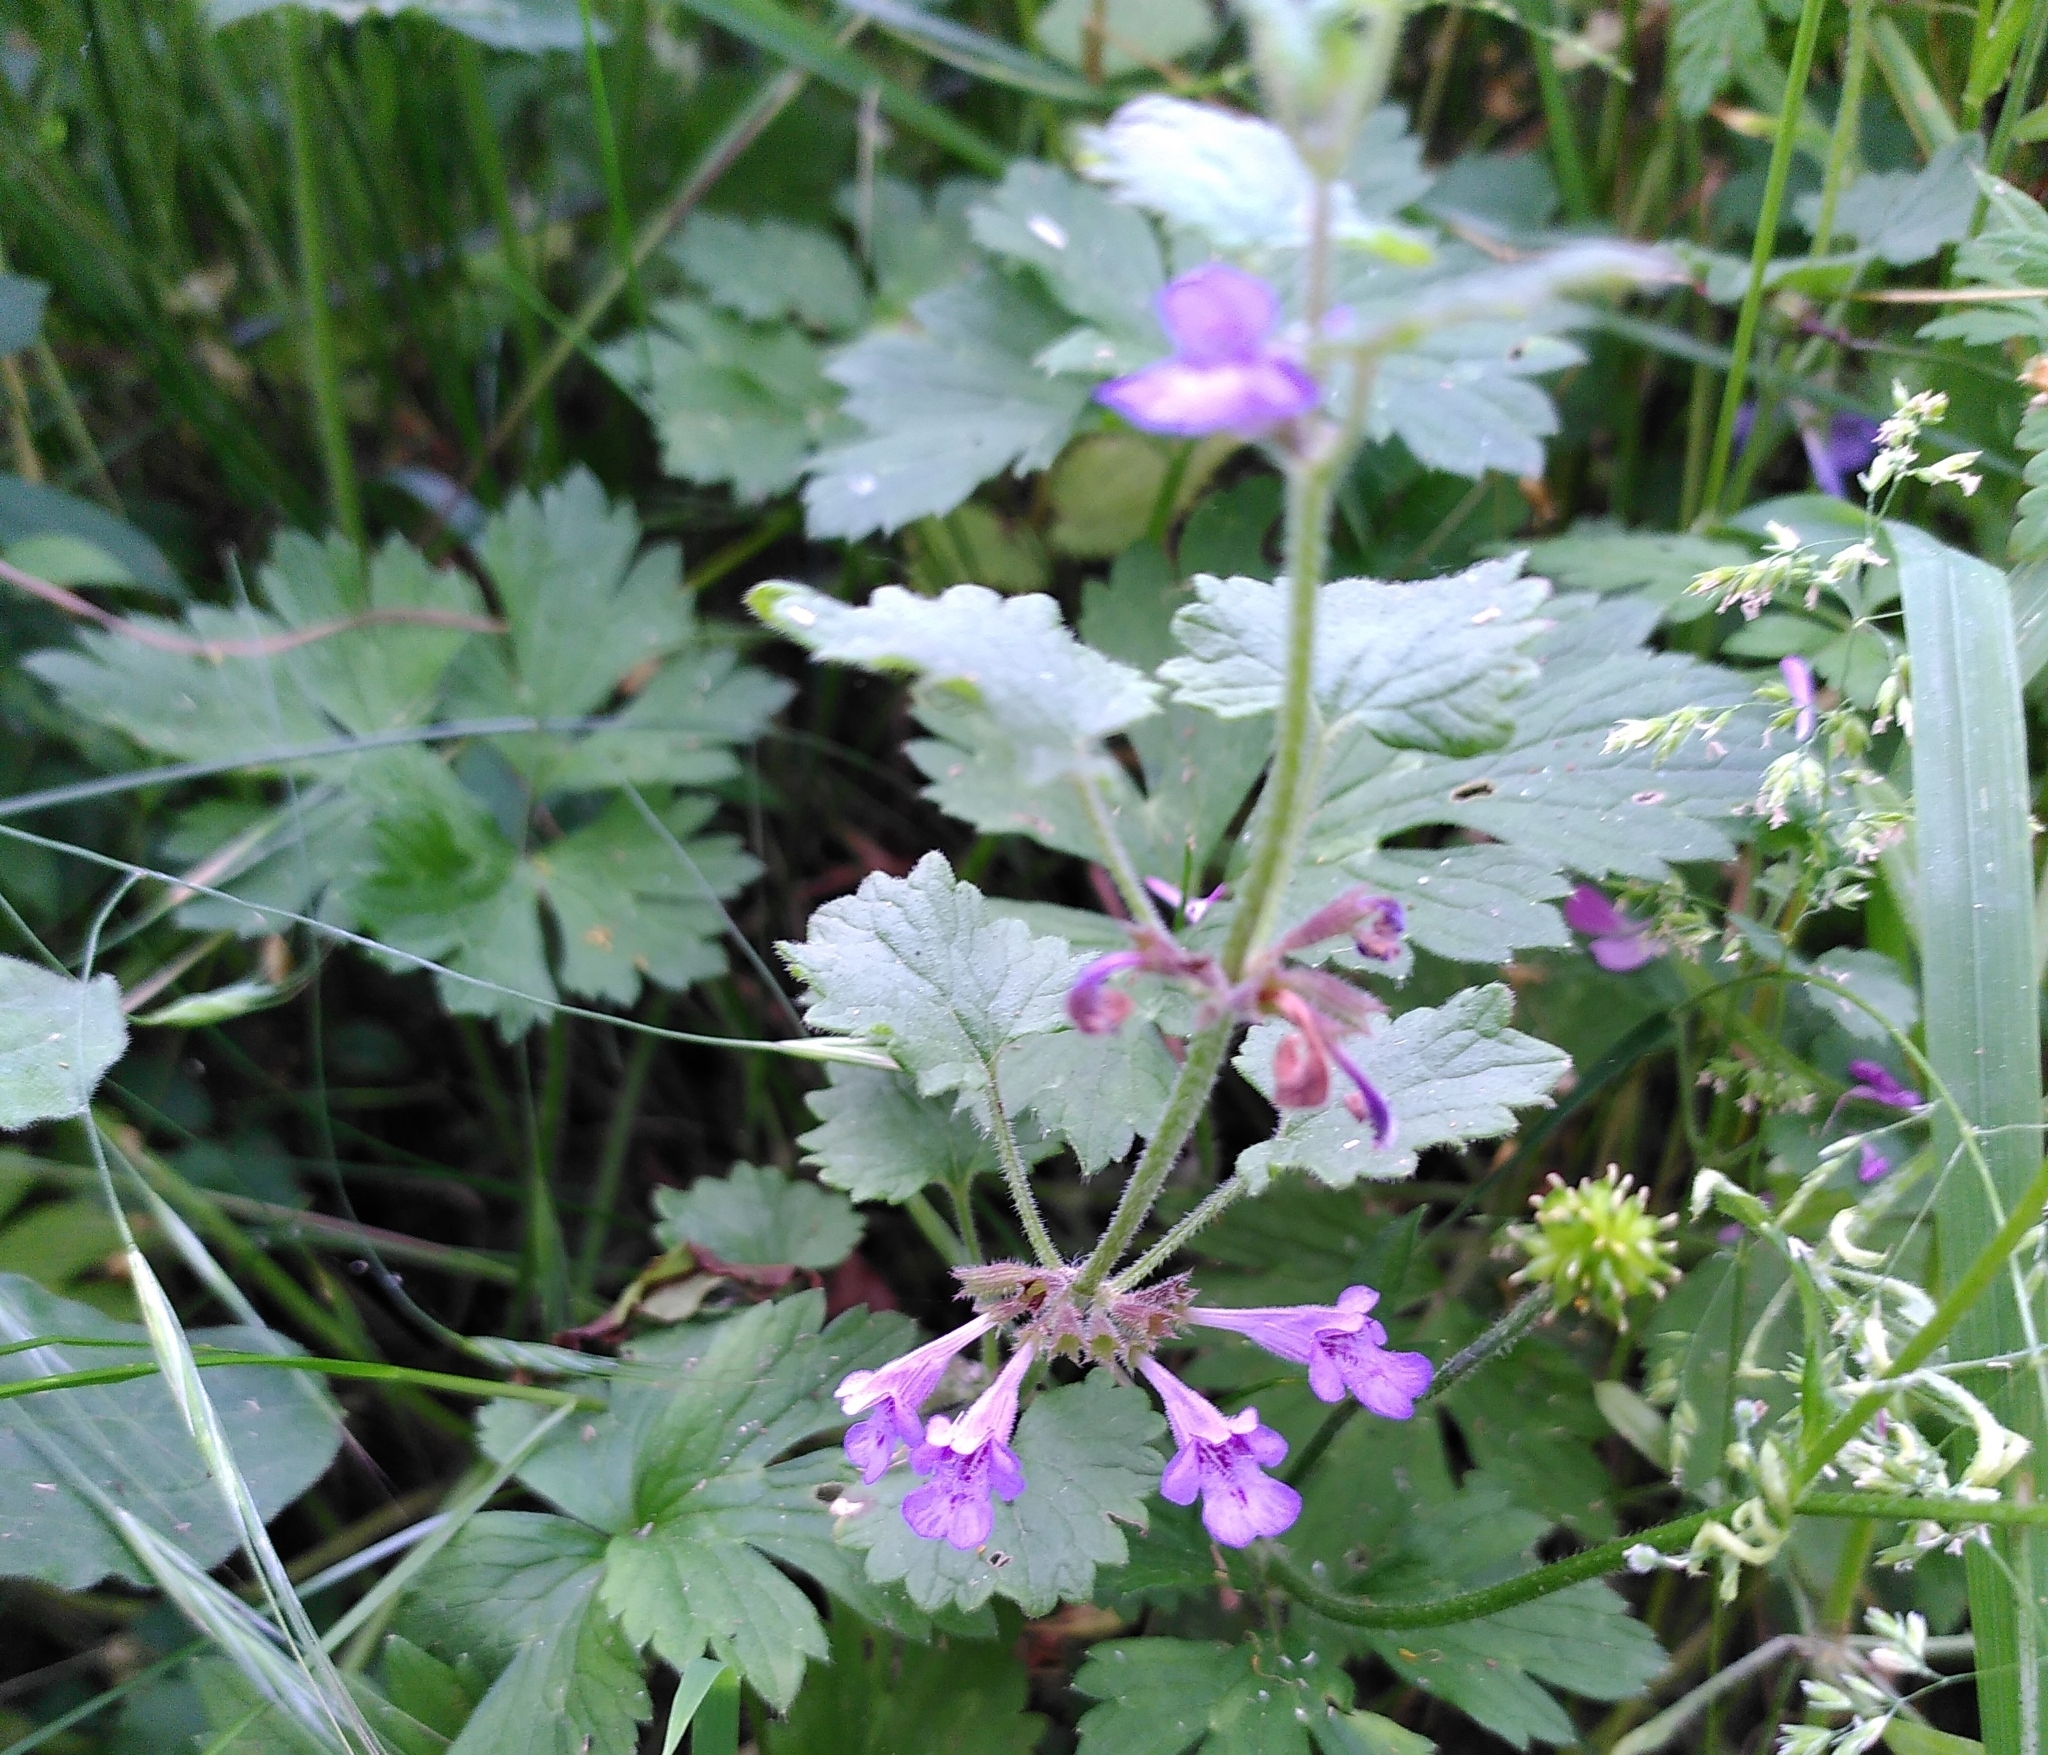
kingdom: Plantae
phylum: Tracheophyta
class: Magnoliopsida
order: Lamiales
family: Lamiaceae
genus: Glechoma
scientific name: Glechoma hederacea
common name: Ground ivy
